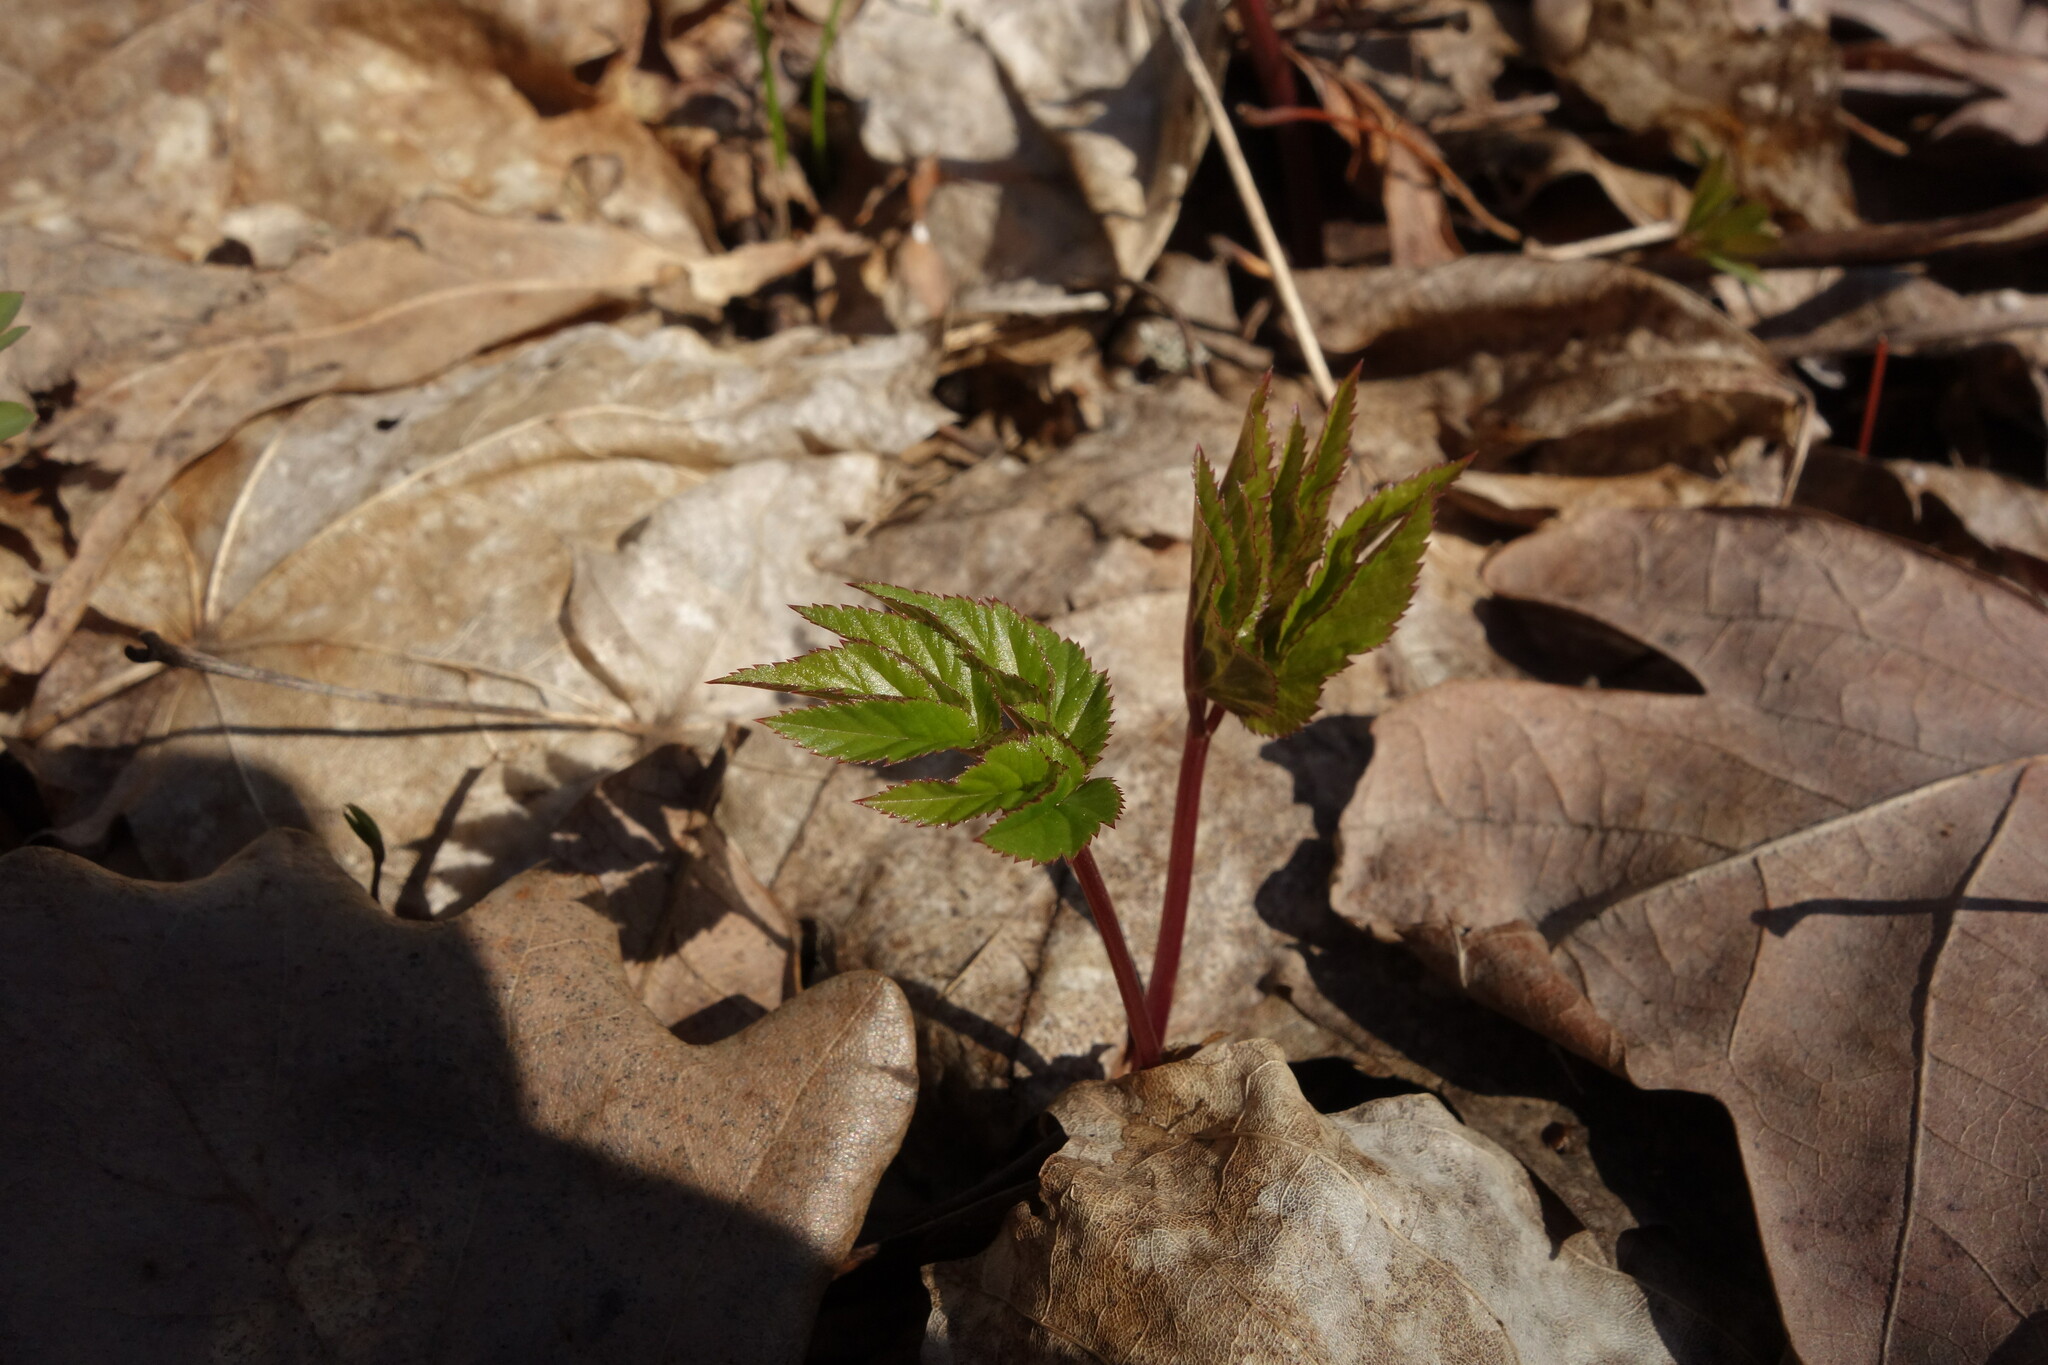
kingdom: Plantae
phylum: Tracheophyta
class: Magnoliopsida
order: Apiales
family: Apiaceae
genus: Aegopodium
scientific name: Aegopodium podagraria
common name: Ground-elder
